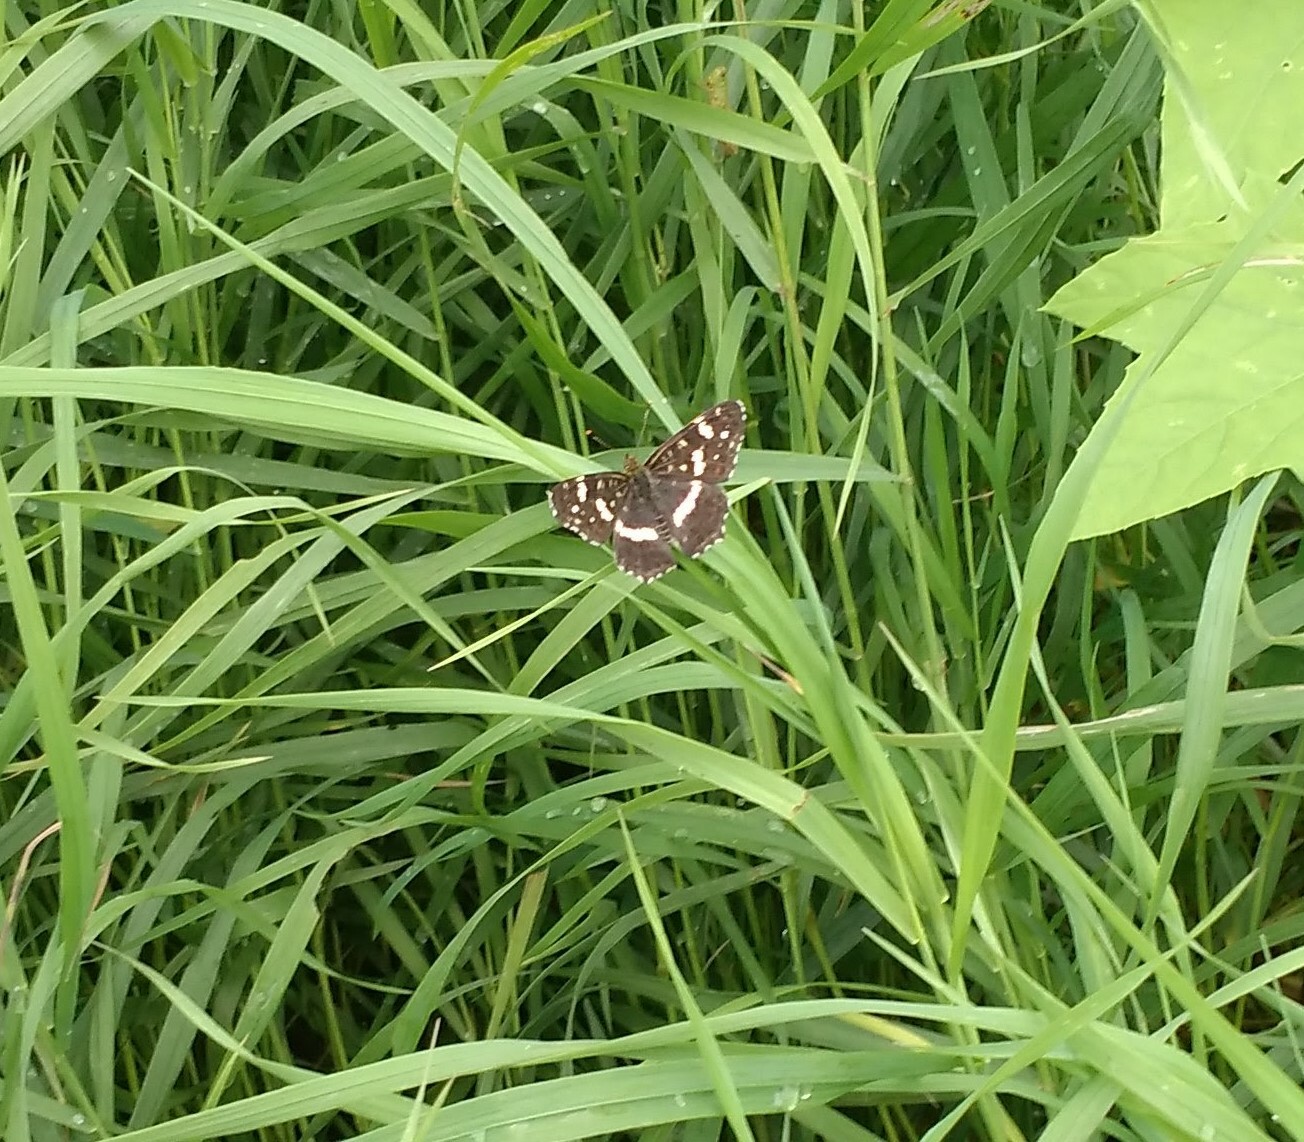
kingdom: Animalia
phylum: Arthropoda
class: Insecta
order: Lepidoptera
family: Nymphalidae
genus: Araschnia
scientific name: Araschnia levana
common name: Map butterfly
